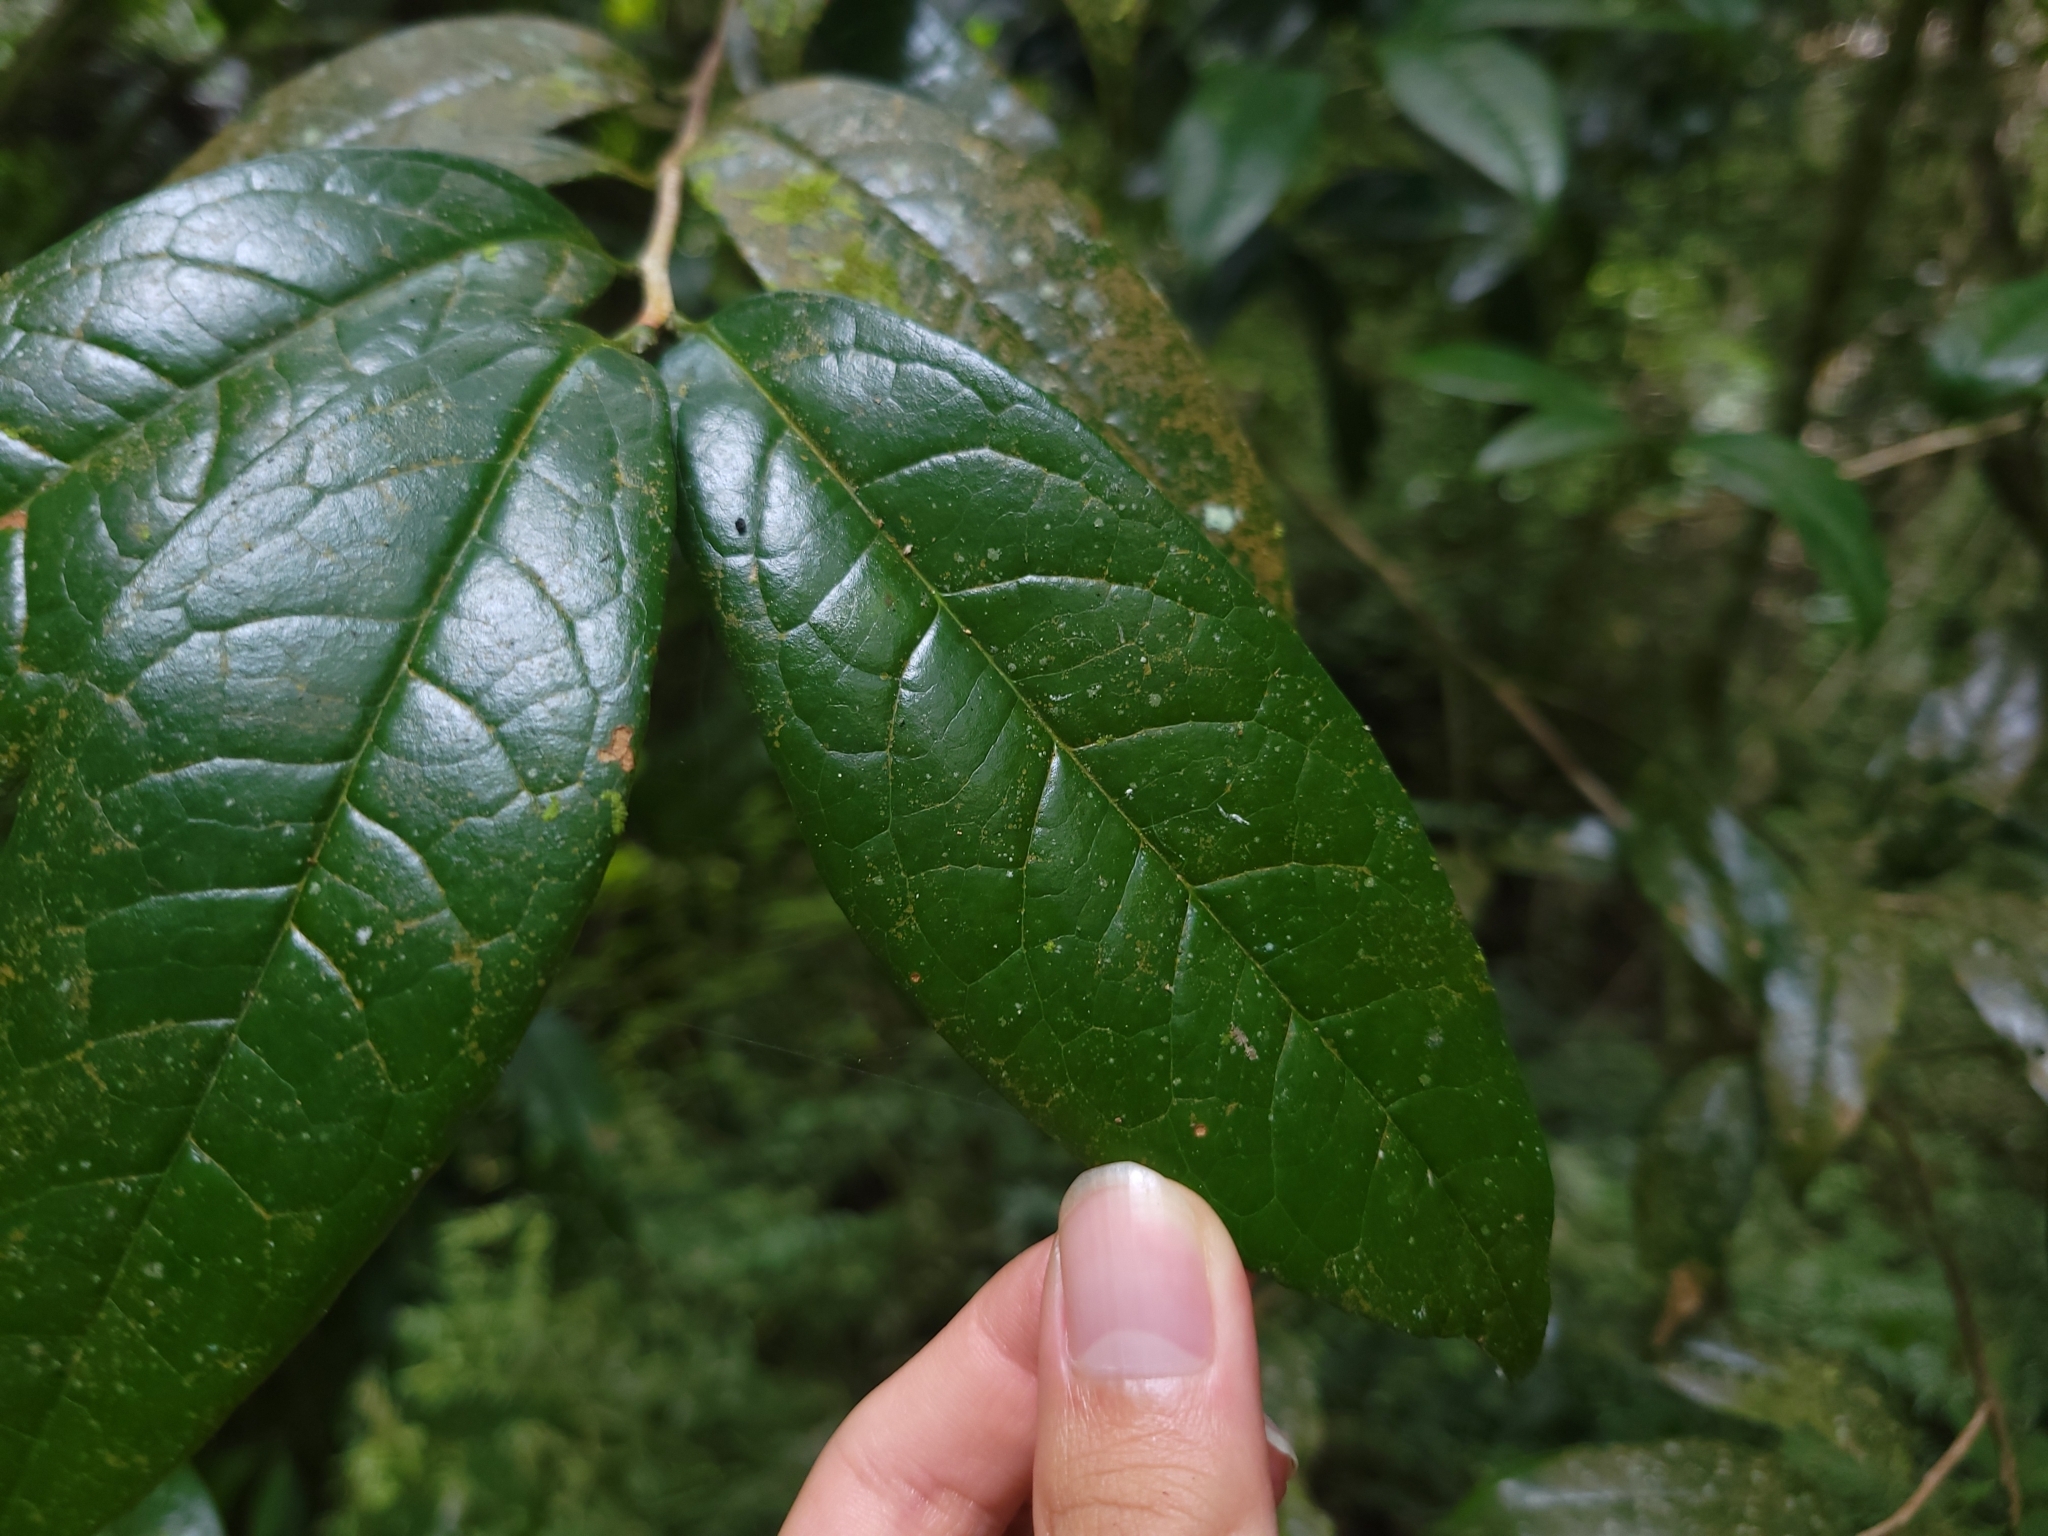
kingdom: Plantae
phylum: Tracheophyta
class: Magnoliopsida
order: Ericales
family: Theaceae
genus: Camellia
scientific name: Camellia furfuracea
